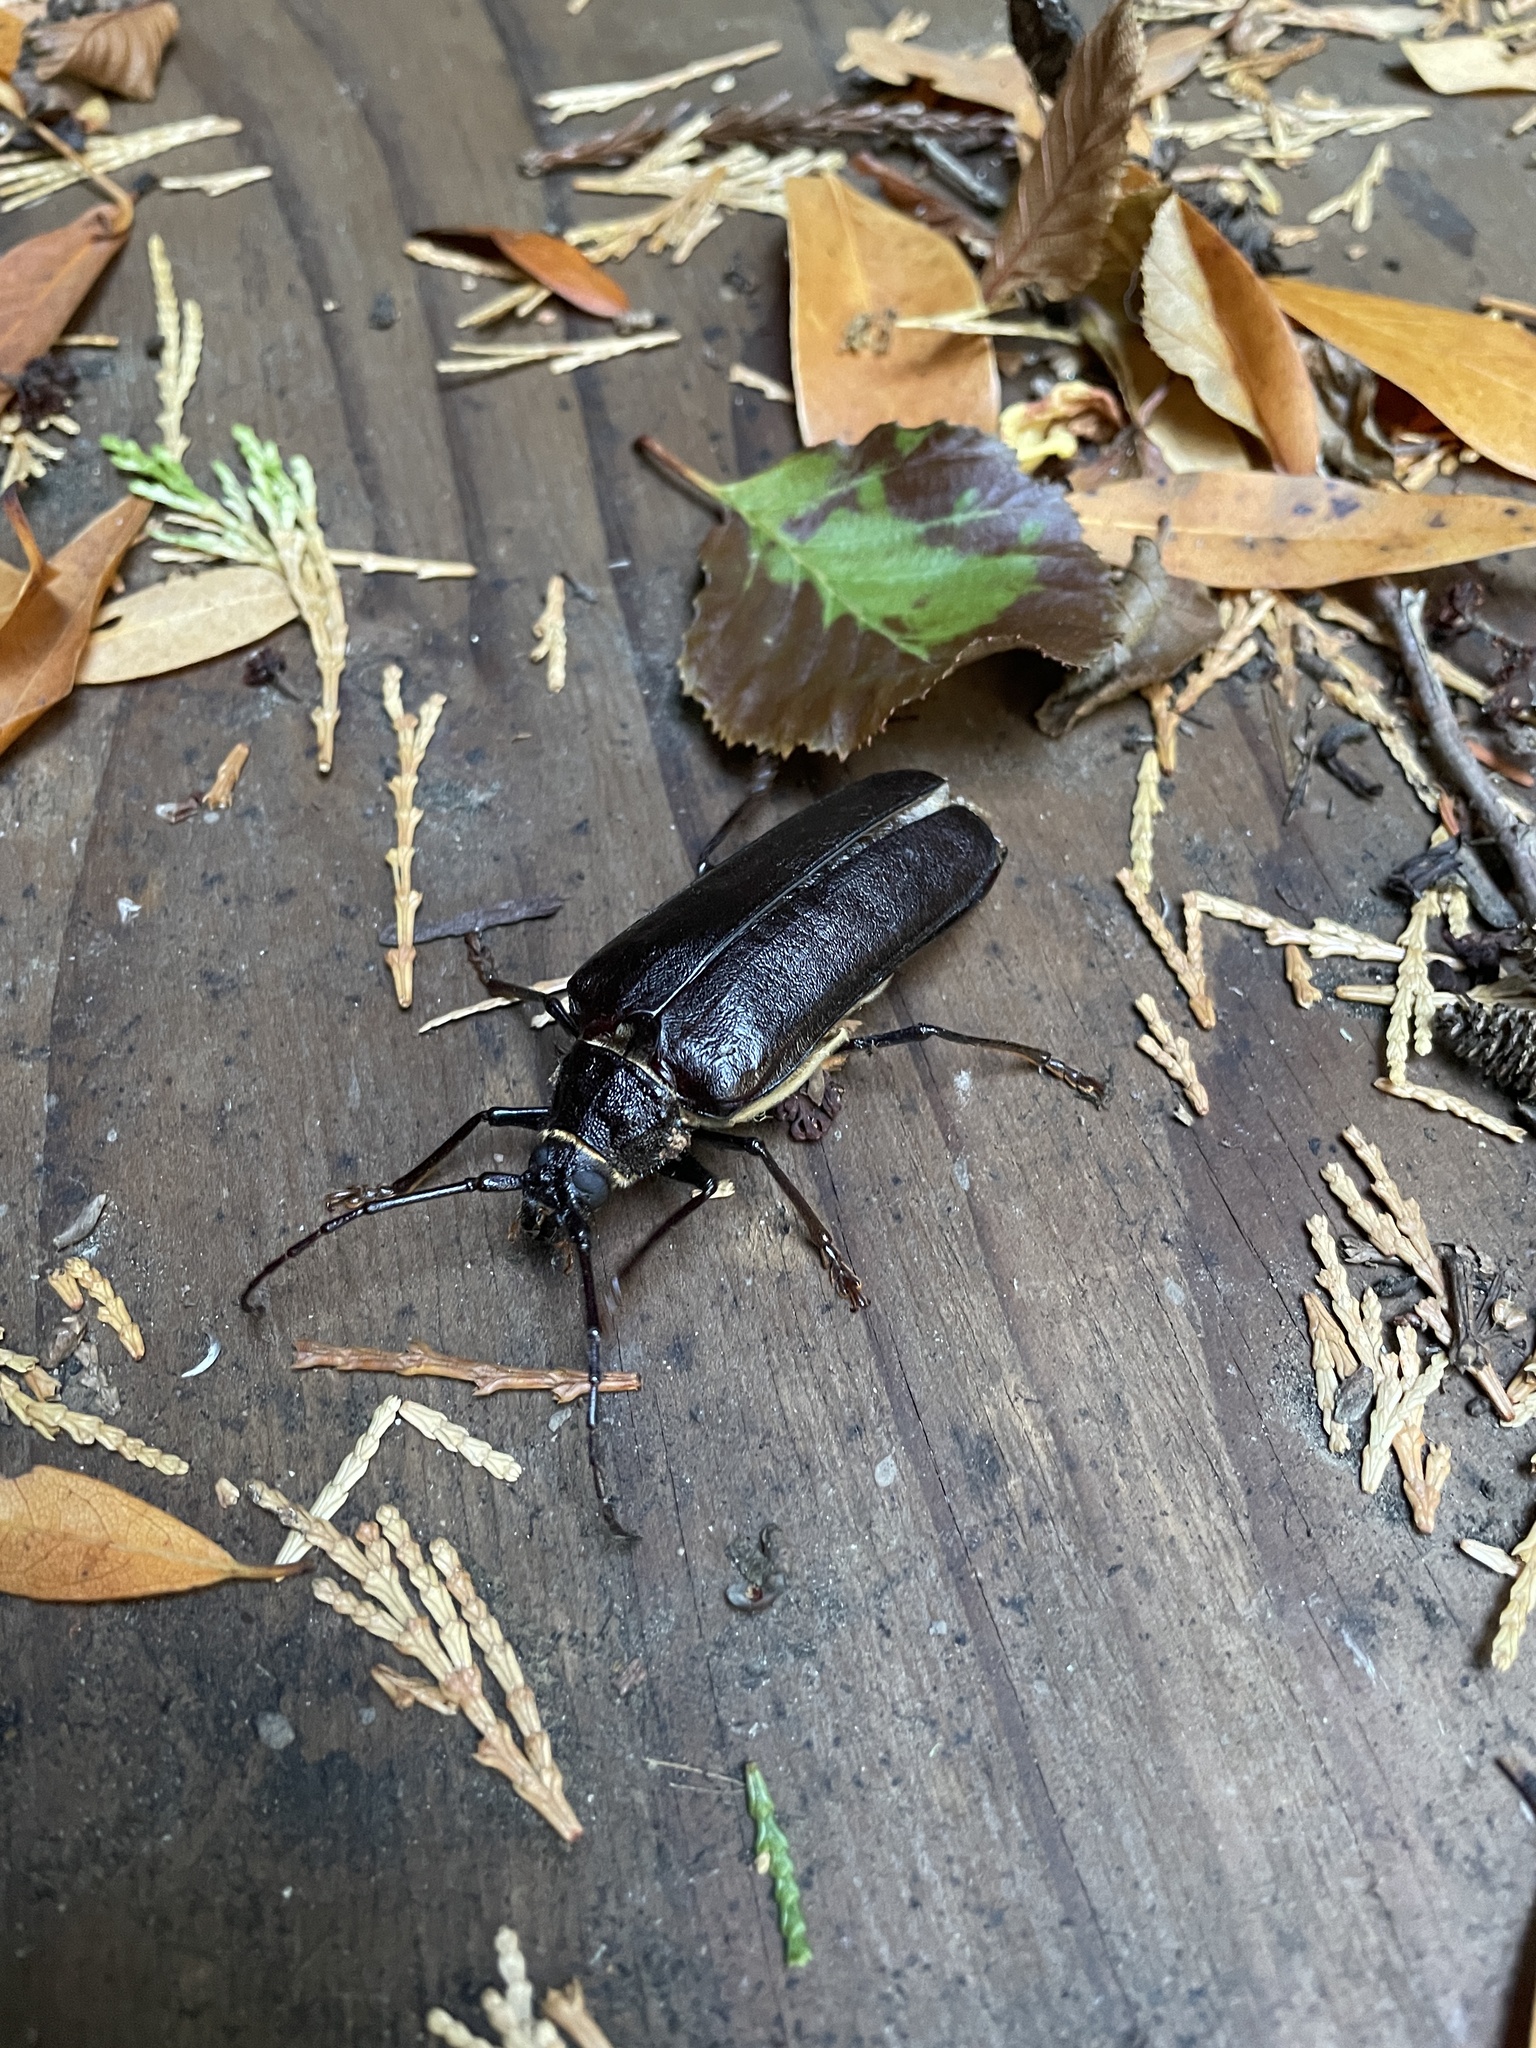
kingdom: Animalia
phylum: Arthropoda
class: Insecta
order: Coleoptera
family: Cerambycidae
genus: Trichocnemis
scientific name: Trichocnemis spiculatus
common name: Long-horned beetle
